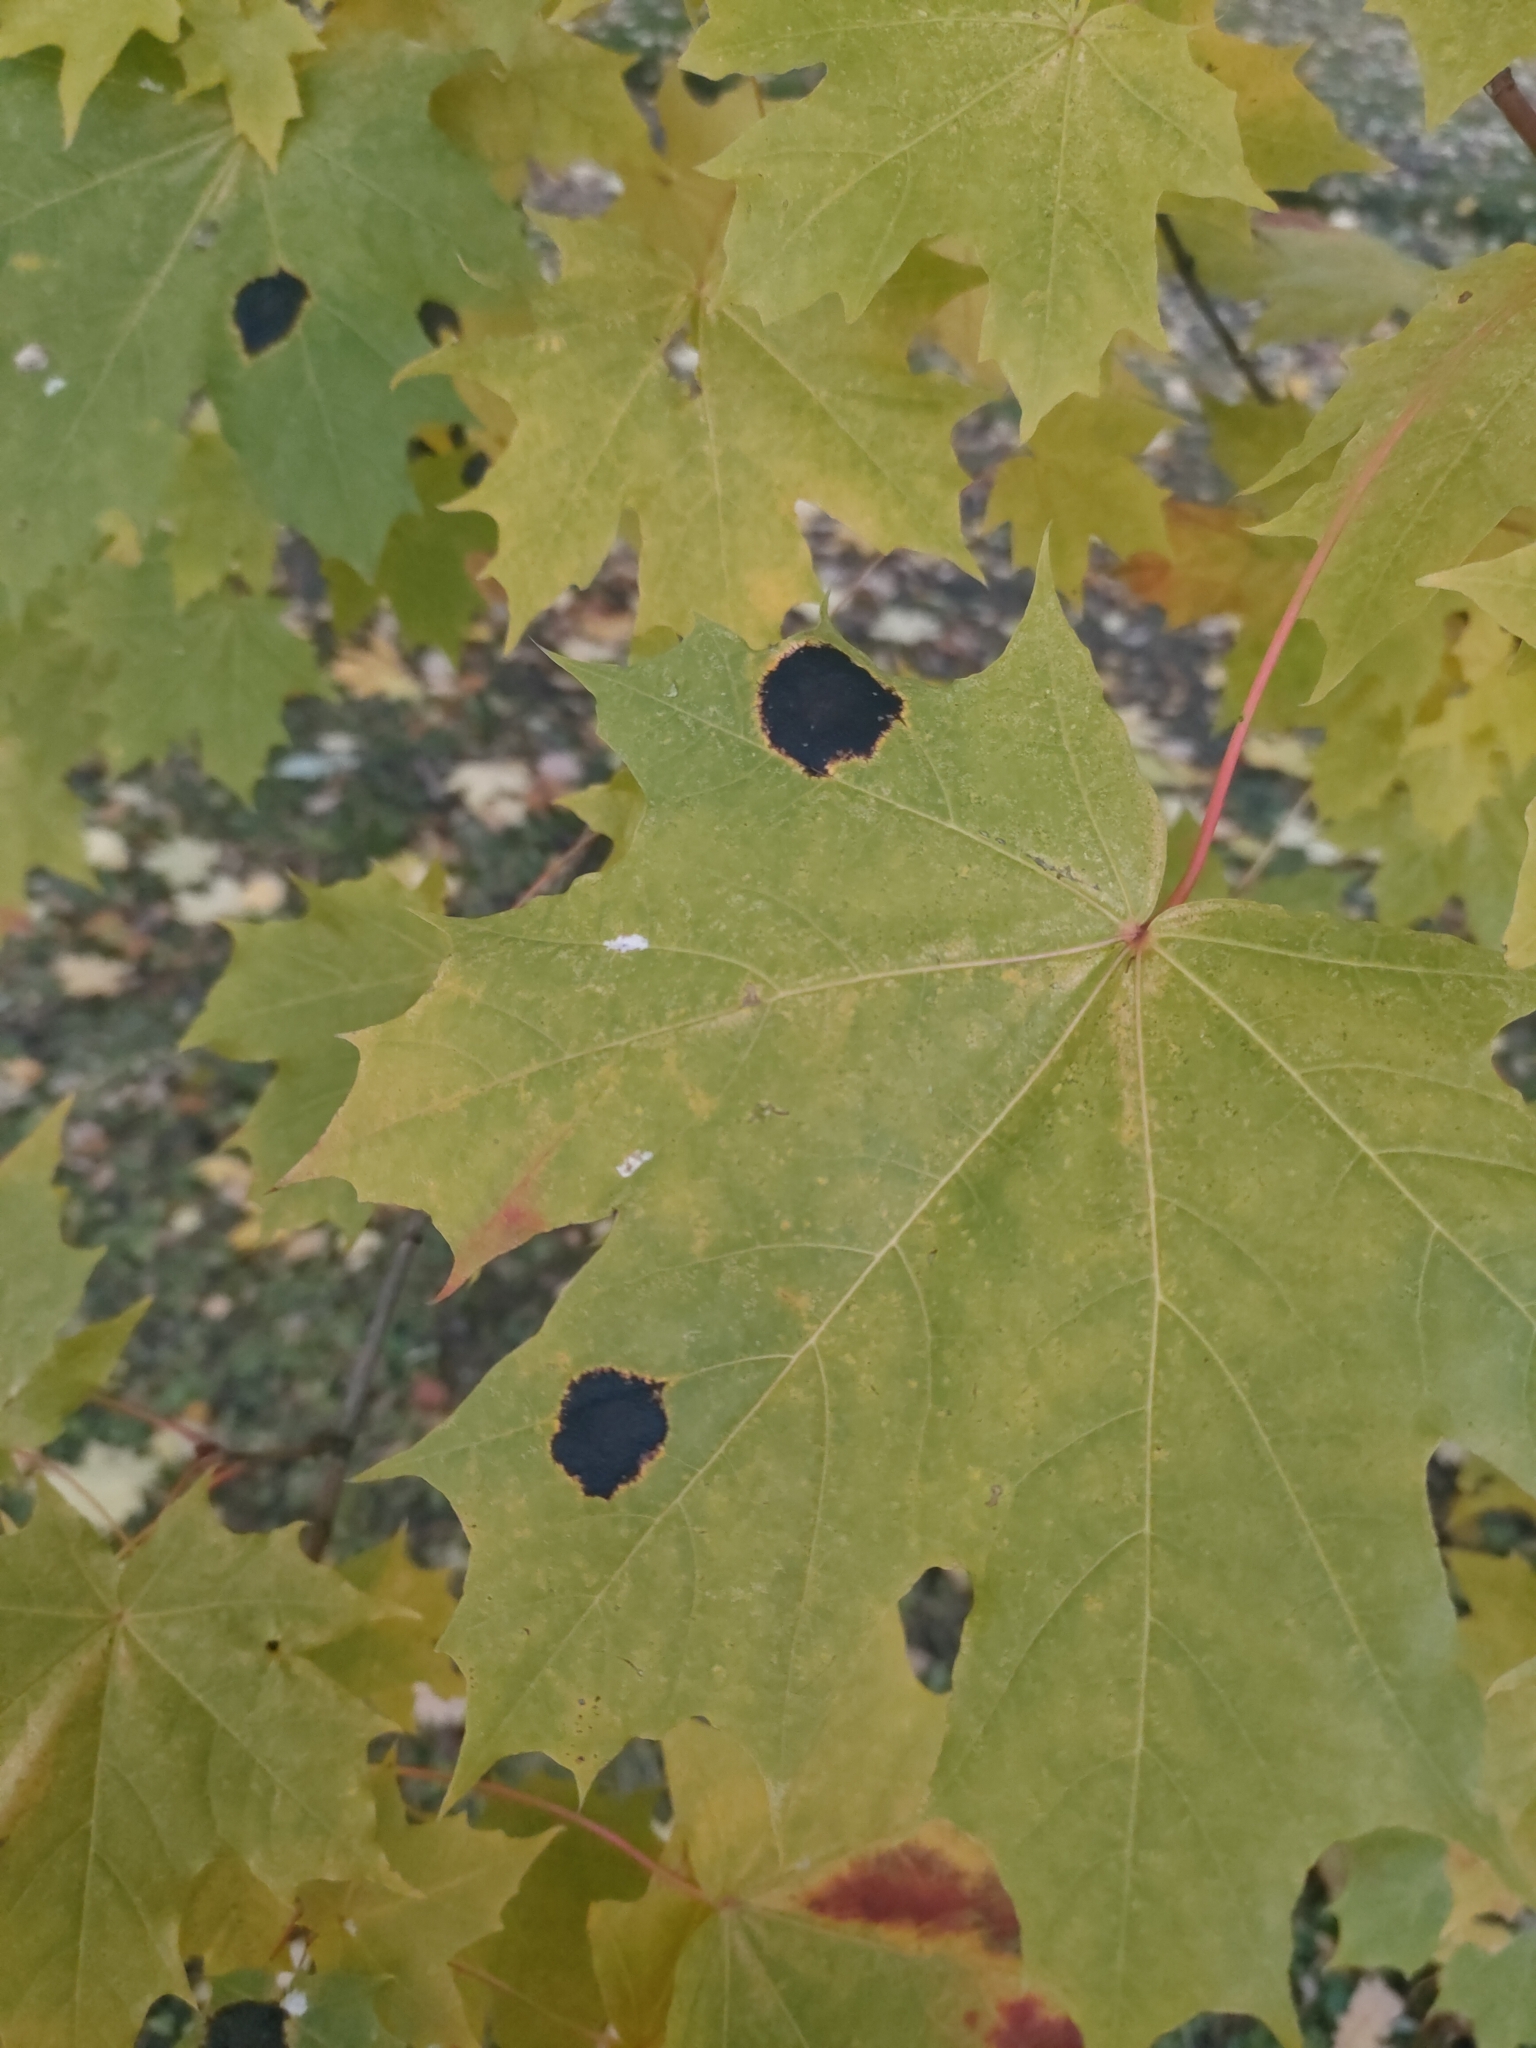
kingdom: Fungi
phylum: Ascomycota
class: Leotiomycetes
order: Rhytismatales
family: Rhytismataceae
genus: Rhytisma
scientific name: Rhytisma acerinum
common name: European tar spot
